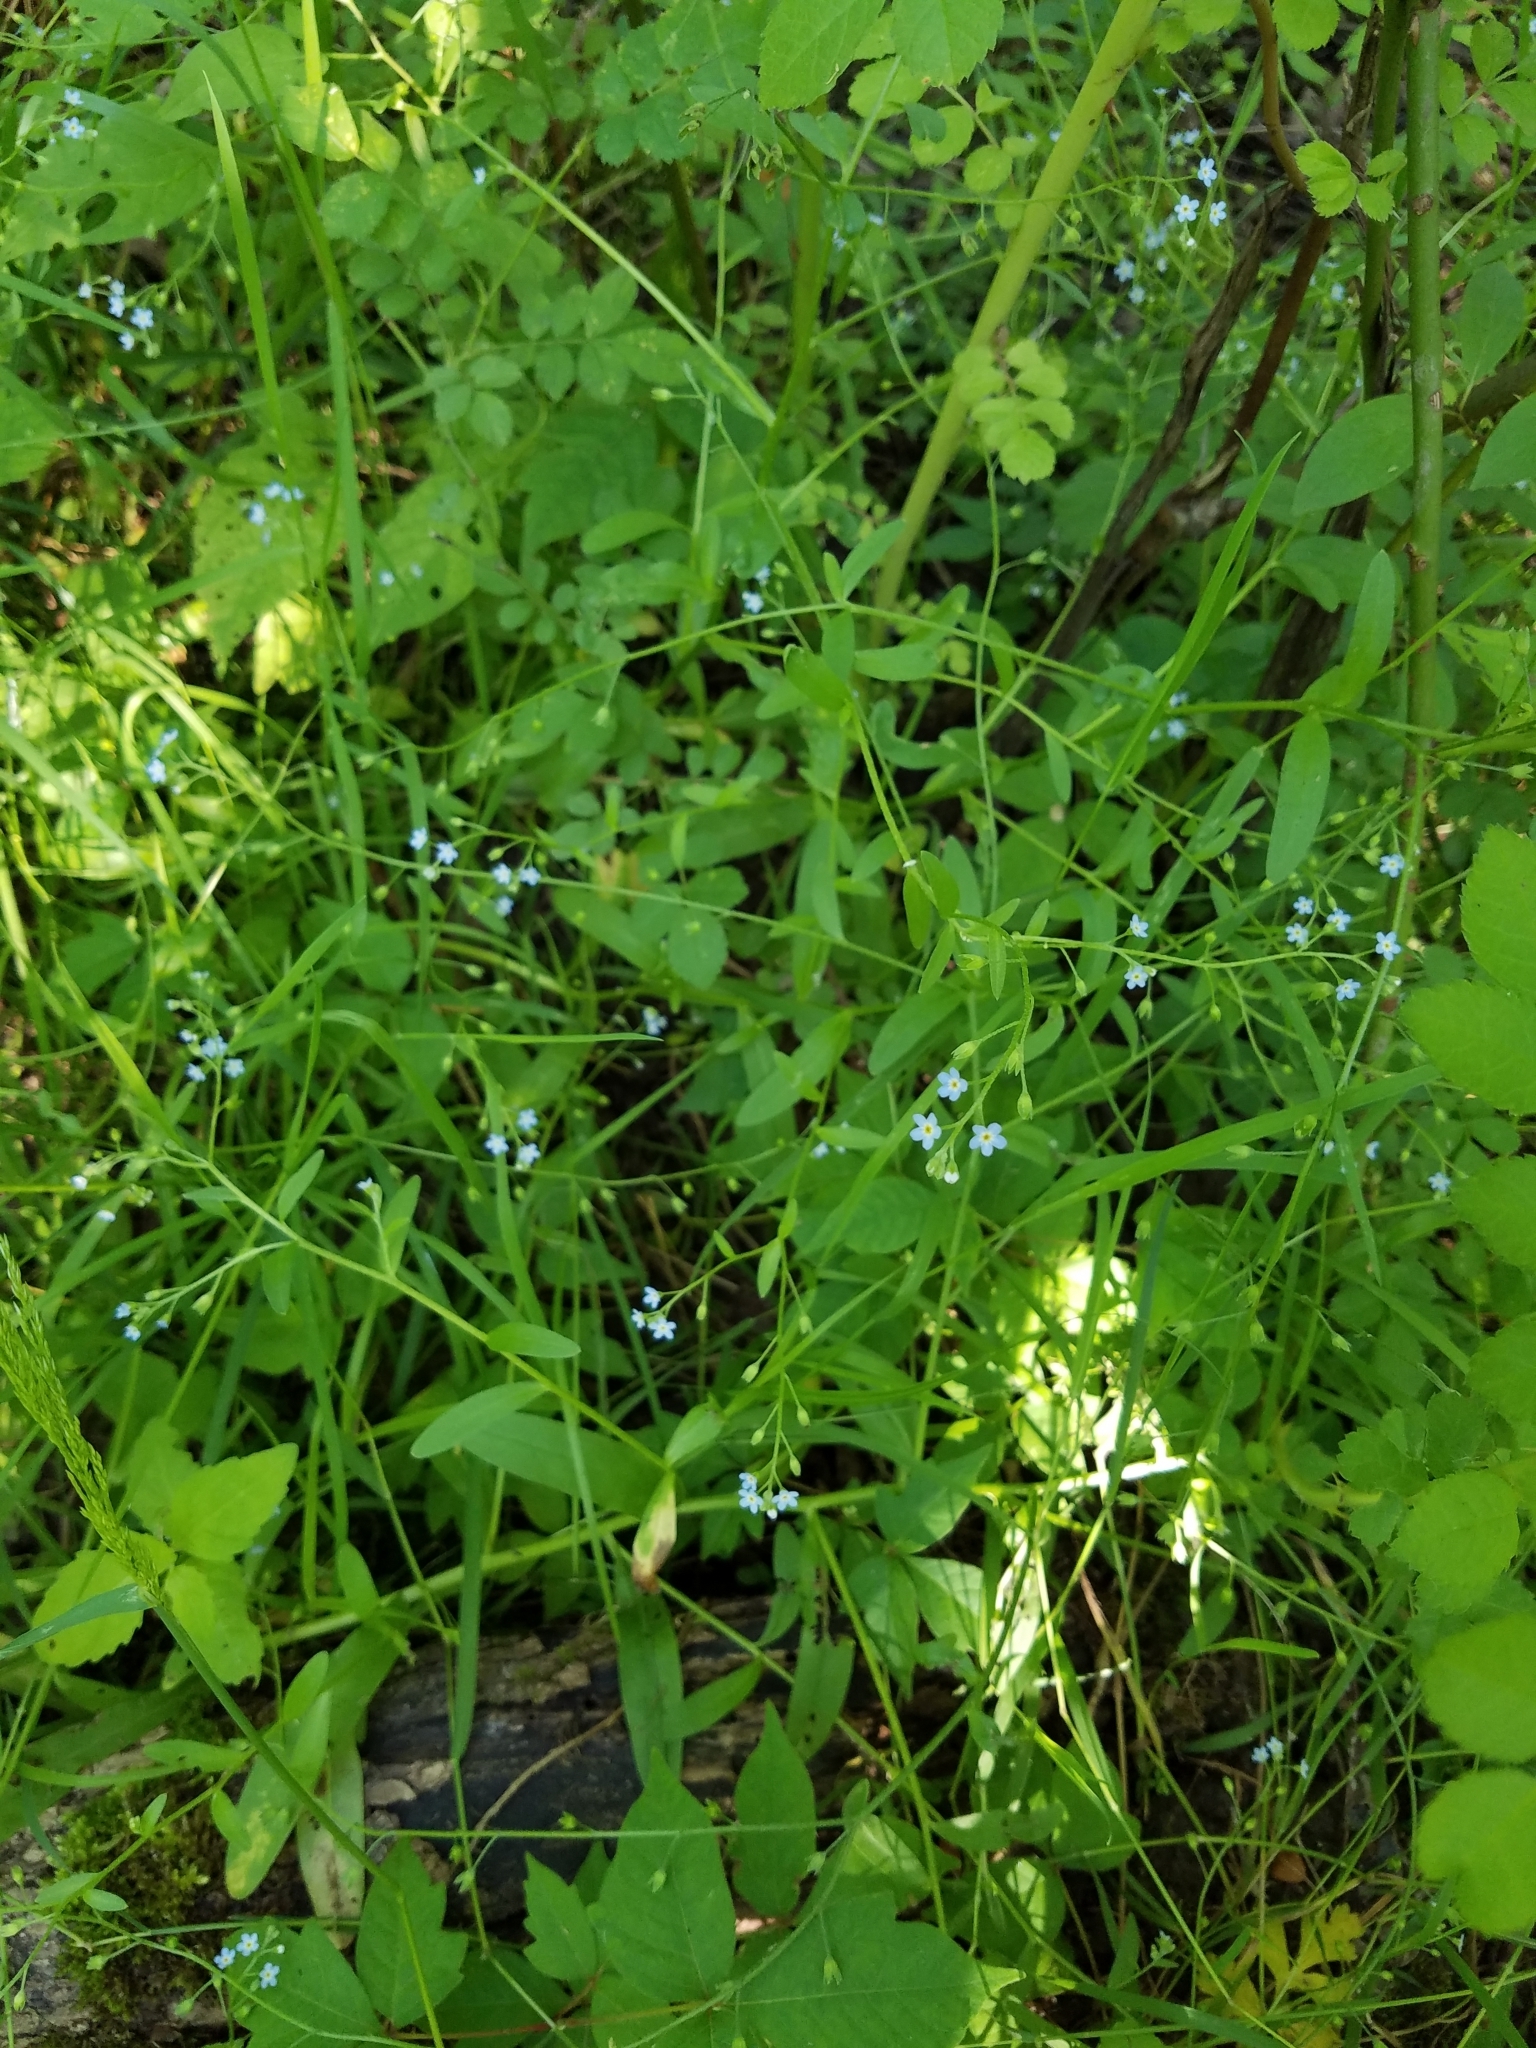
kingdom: Plantae
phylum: Tracheophyta
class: Magnoliopsida
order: Boraginales
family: Boraginaceae
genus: Myosotis
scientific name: Myosotis laxa
